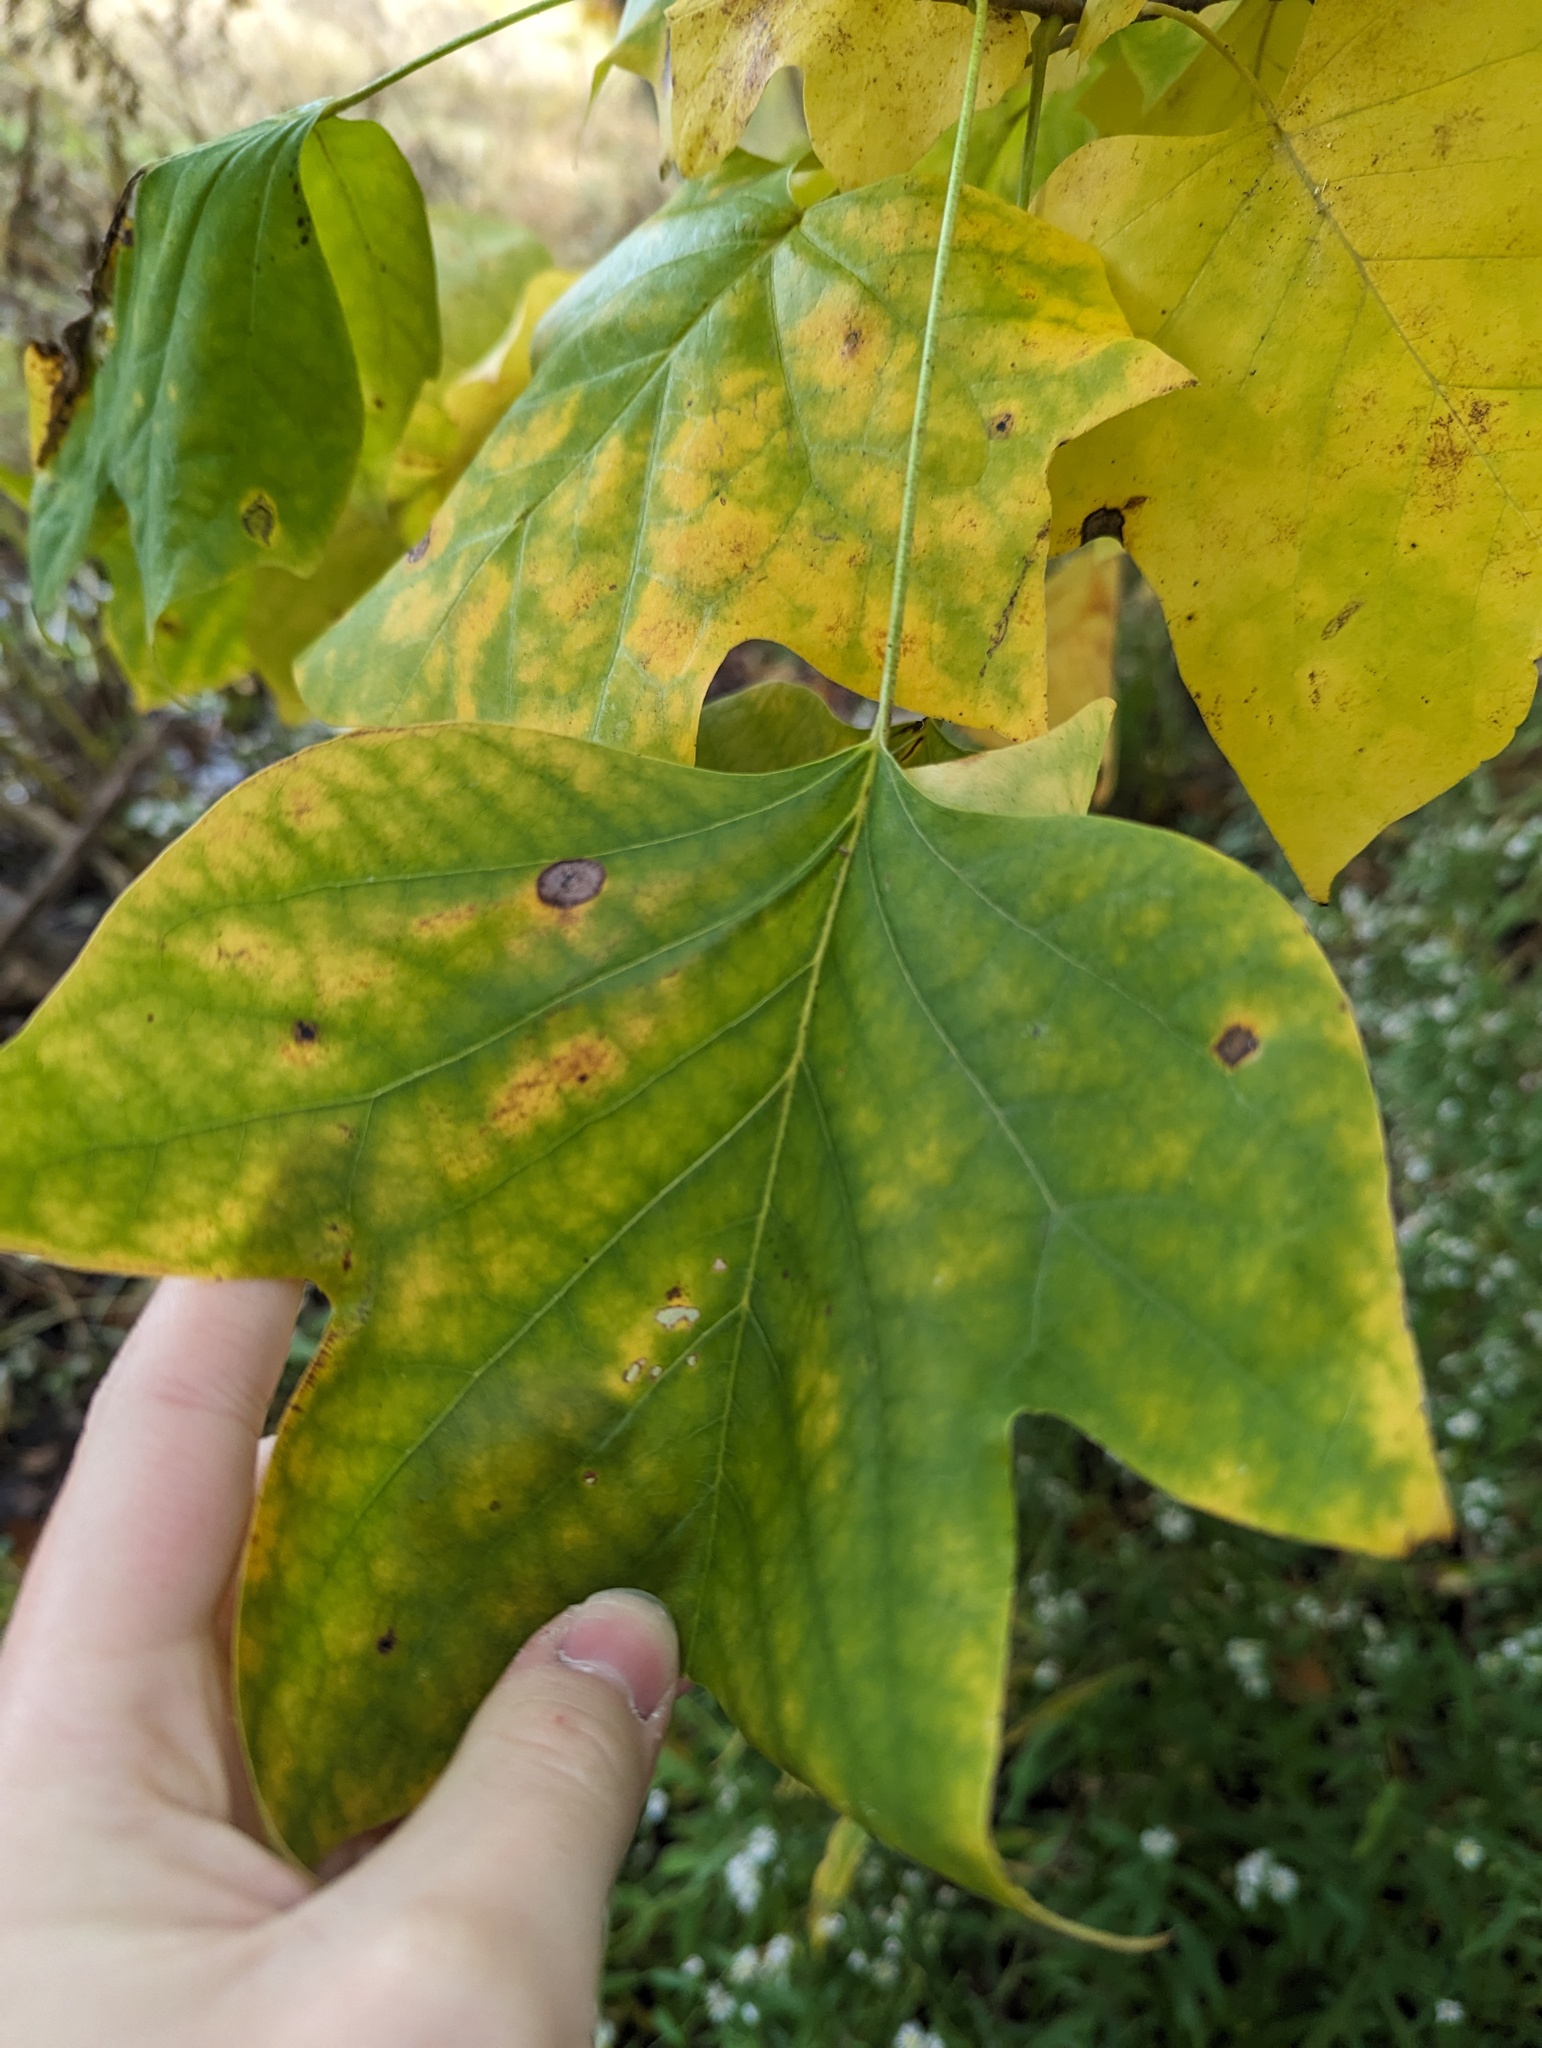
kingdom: Plantae
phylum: Tracheophyta
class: Magnoliopsida
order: Magnoliales
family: Magnoliaceae
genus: Liriodendron
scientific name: Liriodendron tulipifera
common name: Tulip tree
